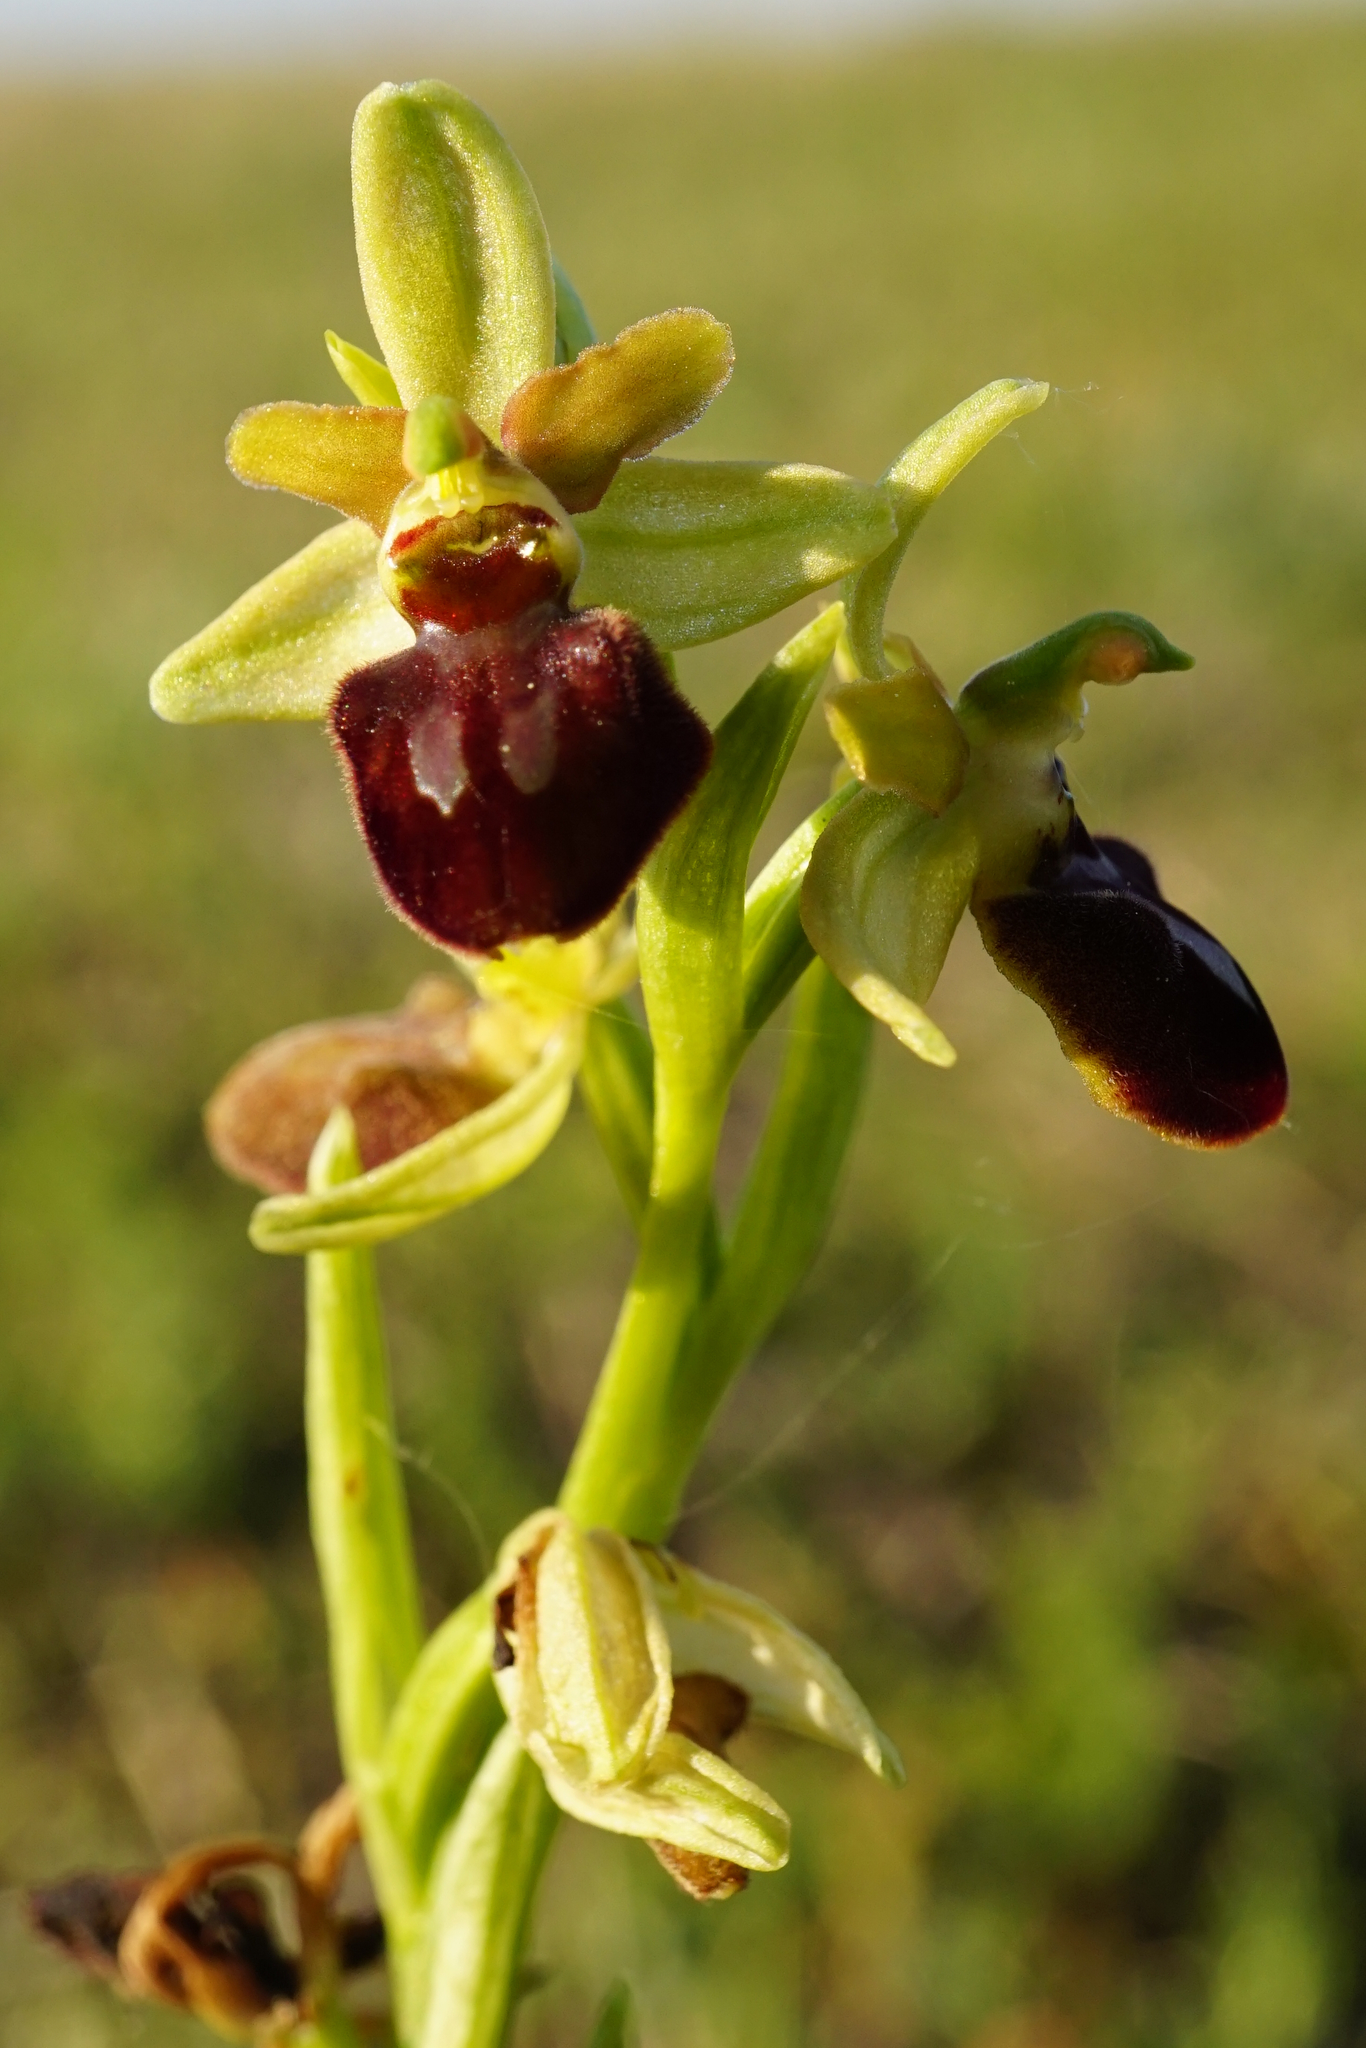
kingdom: Plantae
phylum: Tracheophyta
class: Liliopsida
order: Asparagales
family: Orchidaceae
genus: Ophrys
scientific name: Ophrys sphegodes
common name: Early spider-orchid
